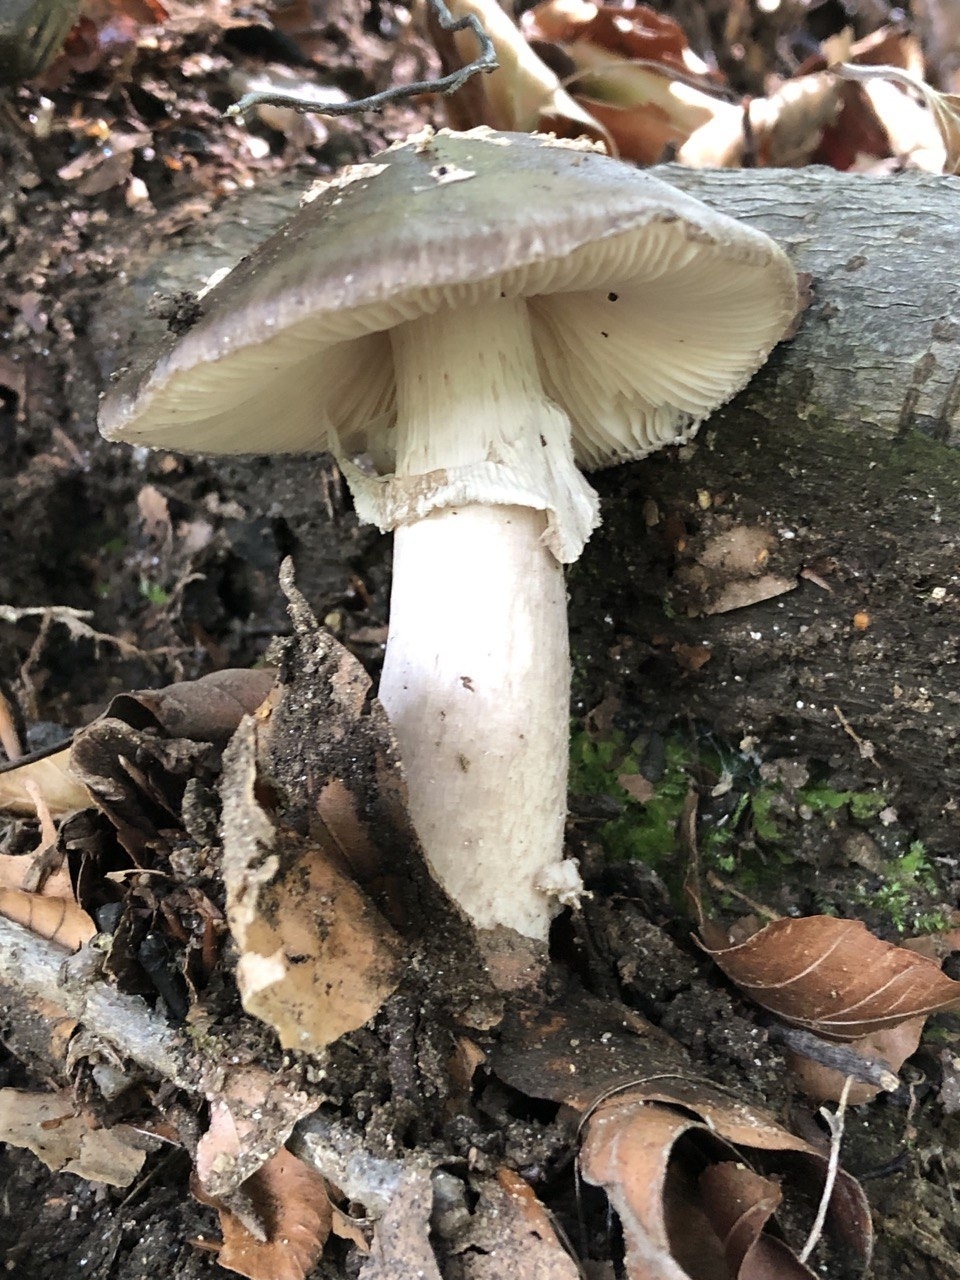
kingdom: Fungi
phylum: Basidiomycota
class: Agaricomycetes
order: Agaricales
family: Amanitaceae
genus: Amanita
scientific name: Amanita excelsa
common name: European false blusher
